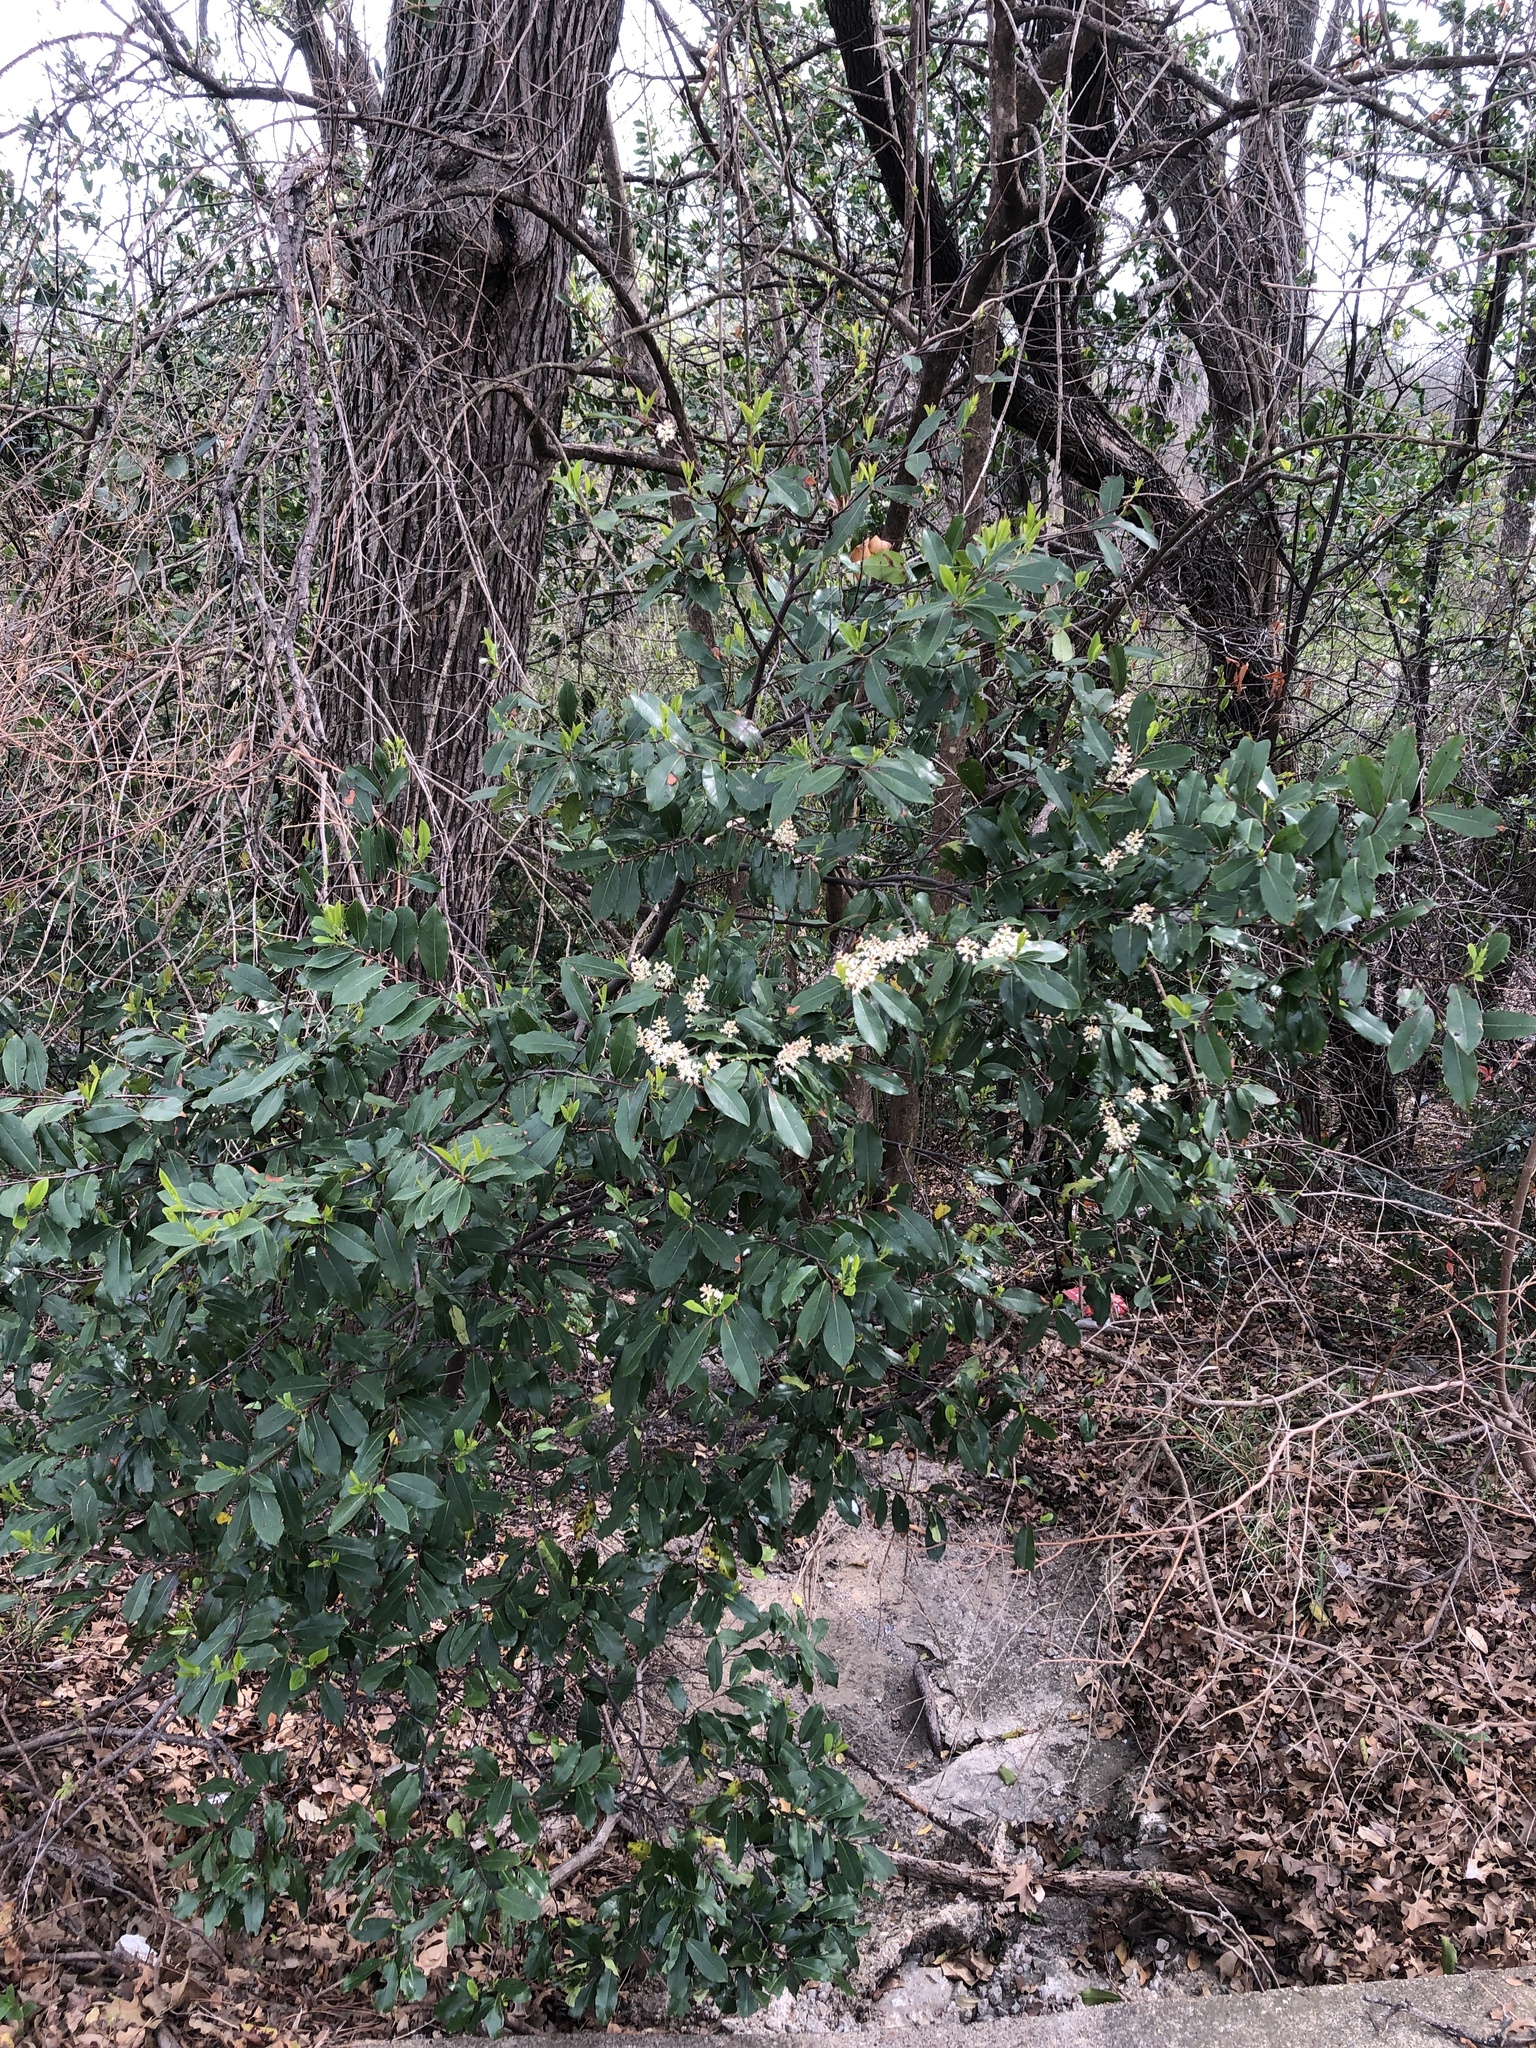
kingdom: Plantae
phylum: Tracheophyta
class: Magnoliopsida
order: Rosales
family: Rosaceae
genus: Prunus
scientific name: Prunus caroliniana
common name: Carolina laurel cherry
